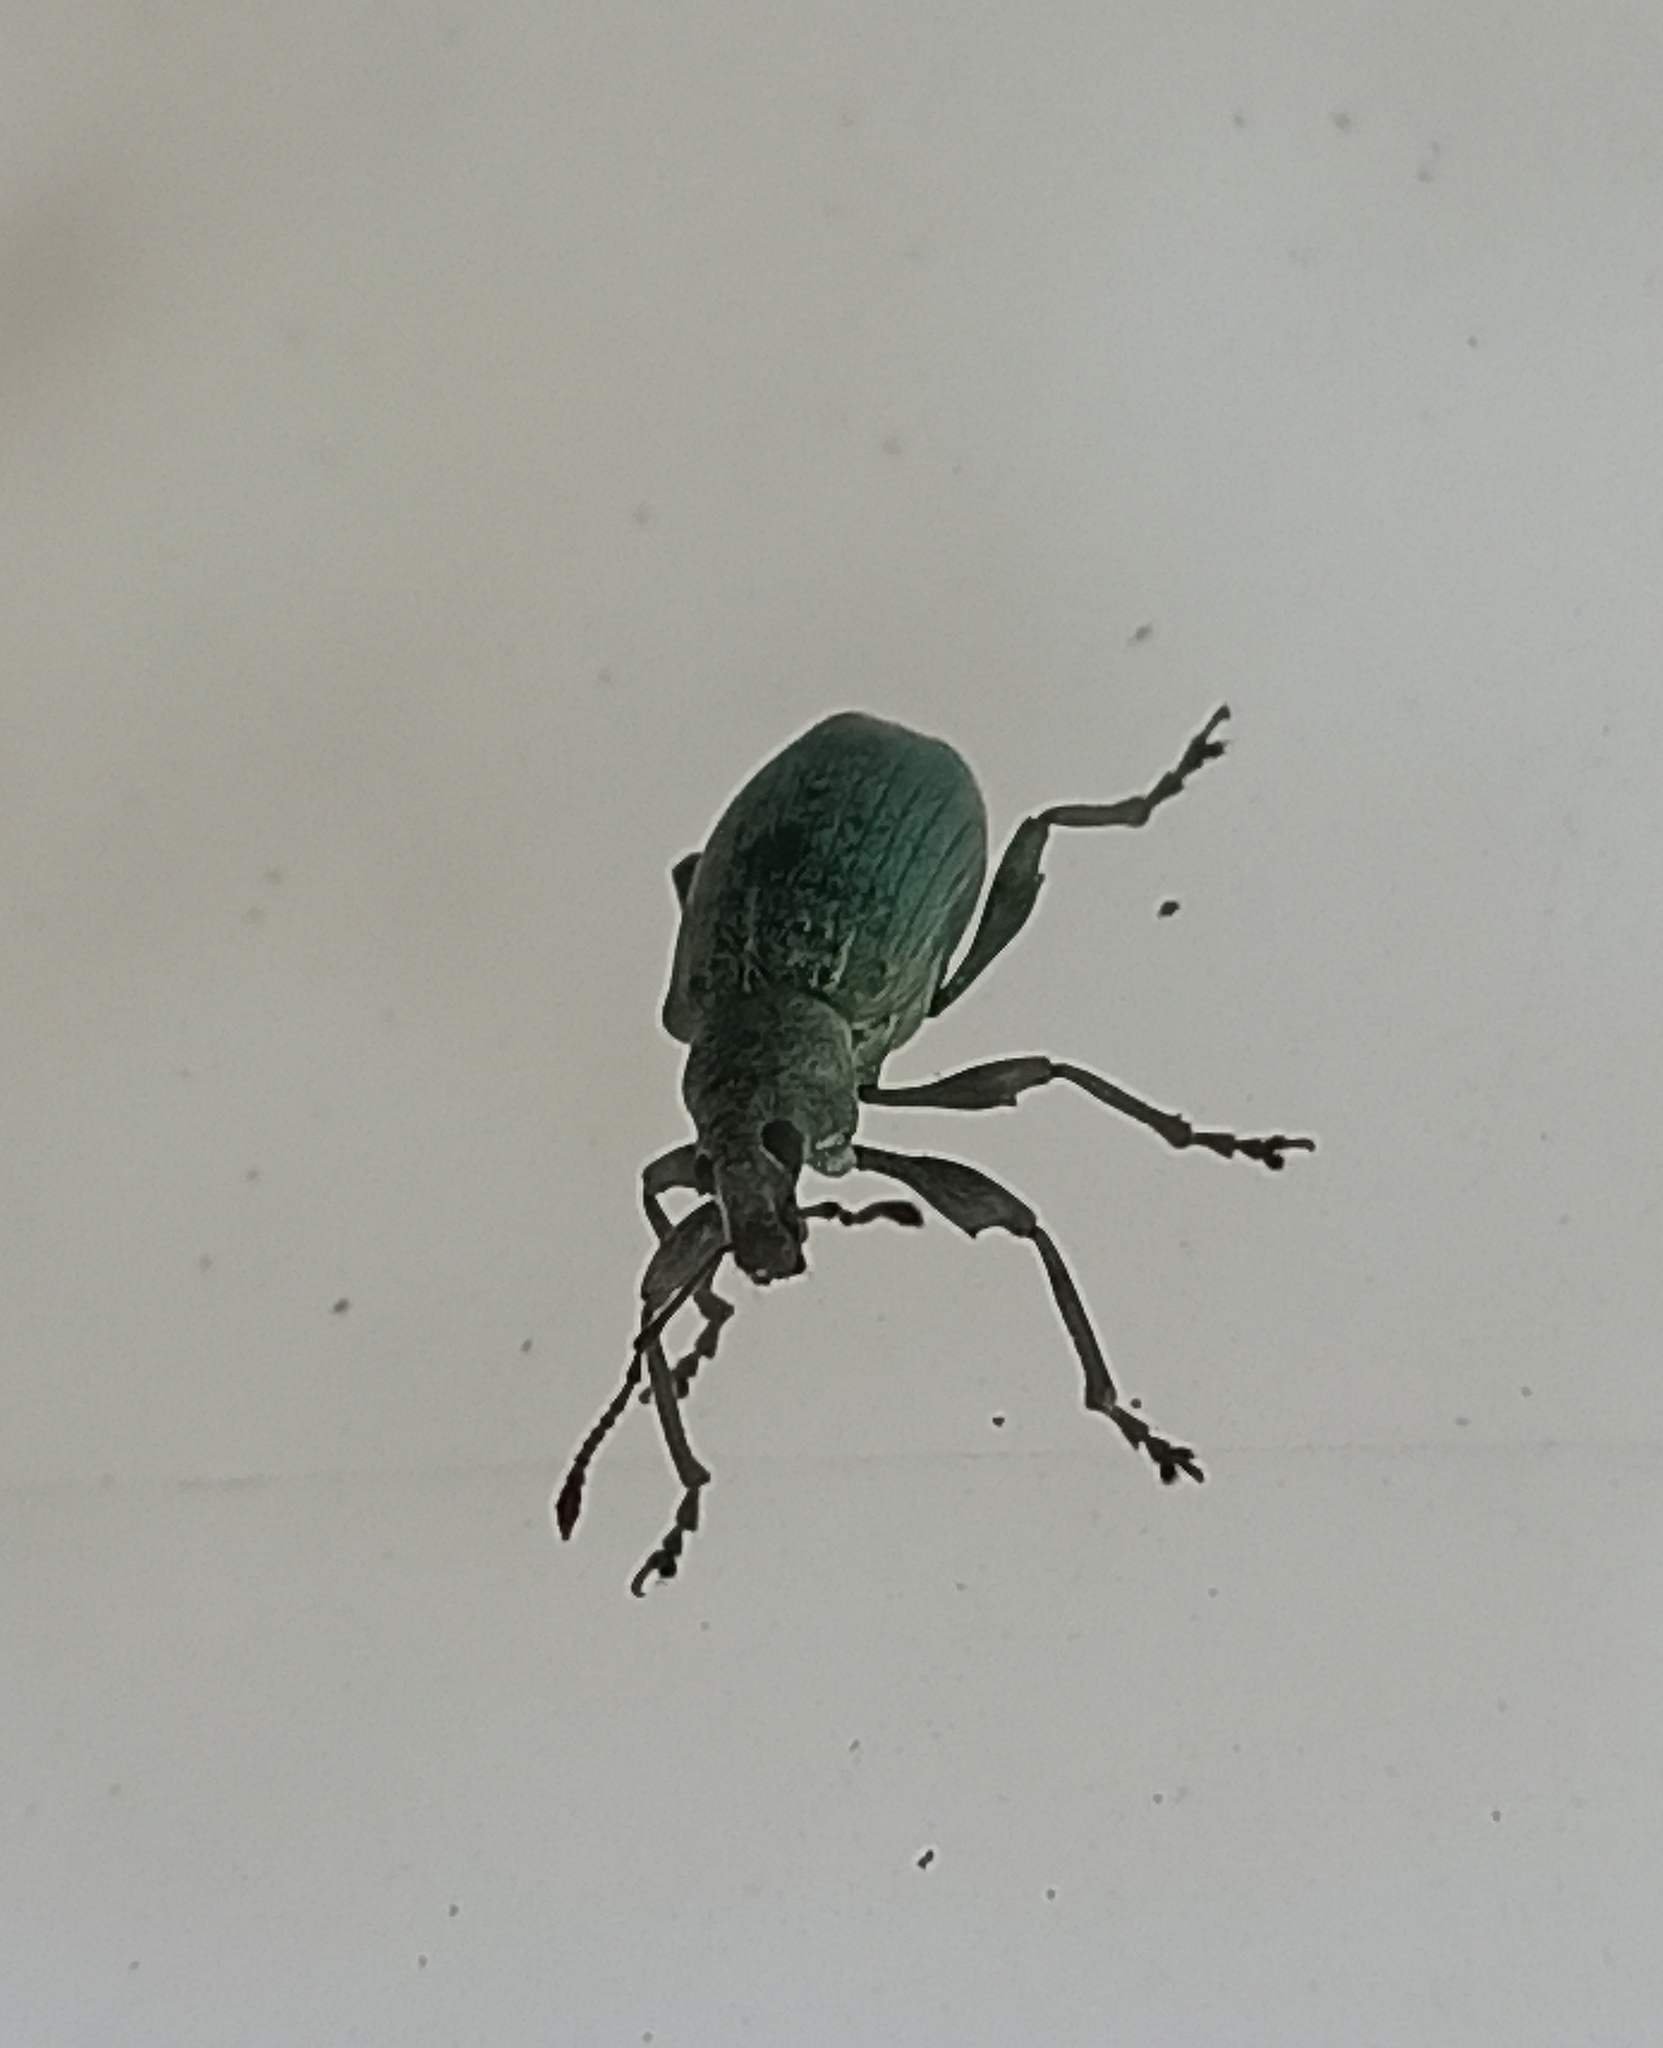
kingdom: Animalia
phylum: Arthropoda
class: Insecta
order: Coleoptera
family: Curculionidae
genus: Phyllobius
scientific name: Phyllobius pomaceus
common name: Green nettle weevil
